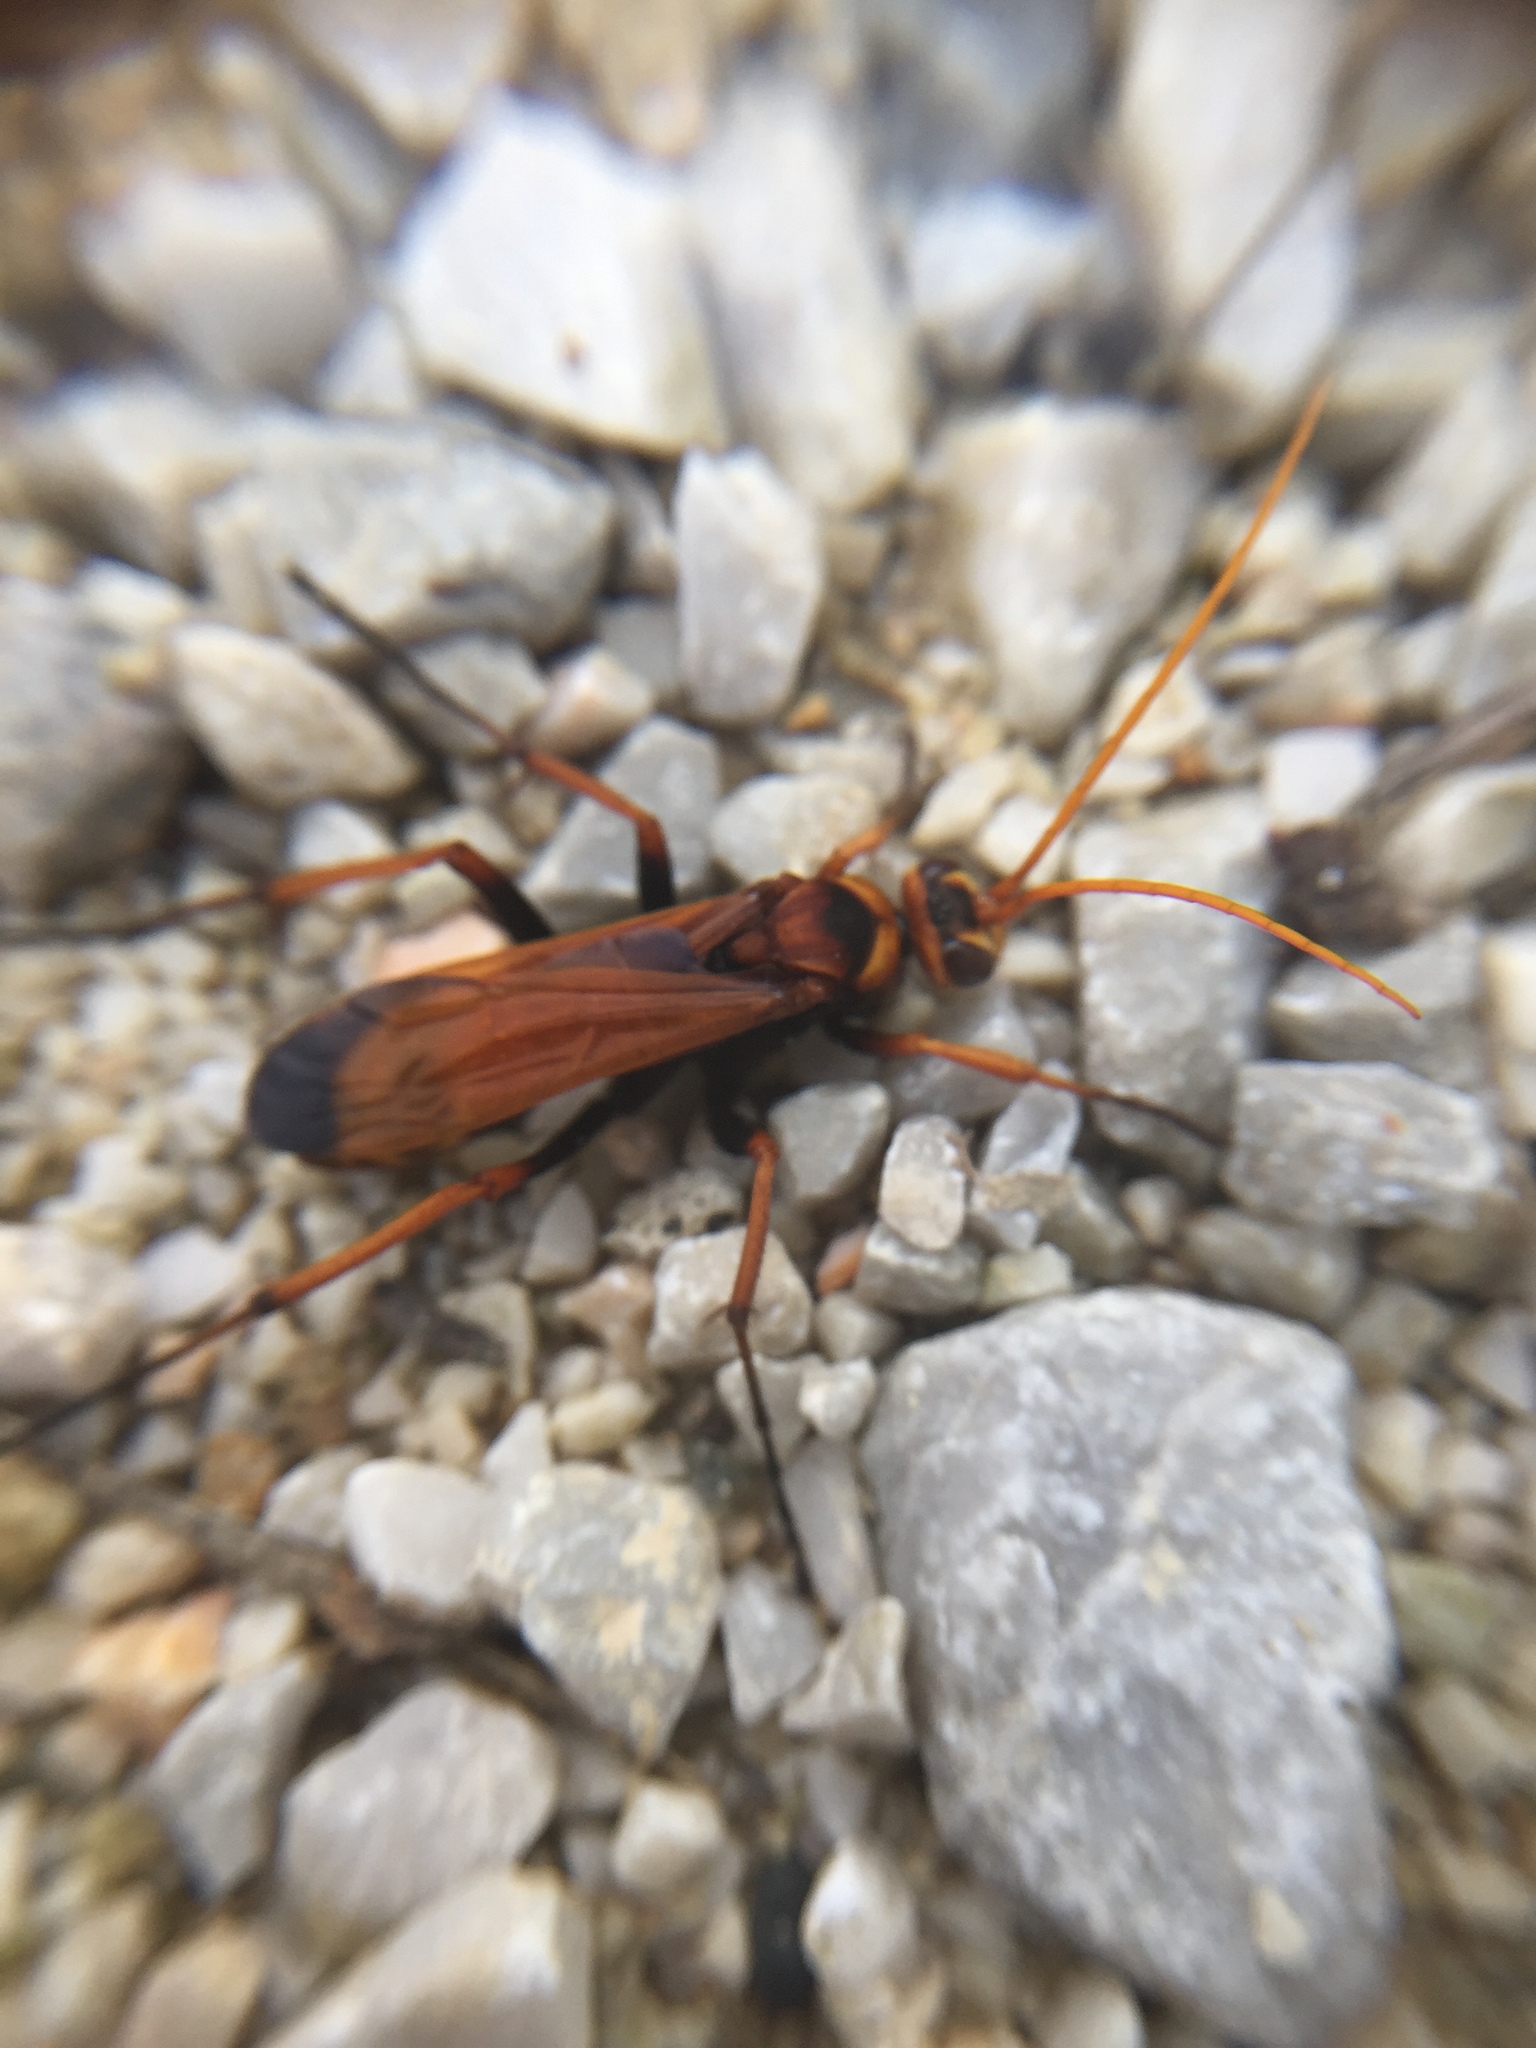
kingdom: Animalia
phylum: Arthropoda
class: Insecta
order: Hymenoptera
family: Pompilidae
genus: Cryptocheilus
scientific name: Cryptocheilus alternatus
